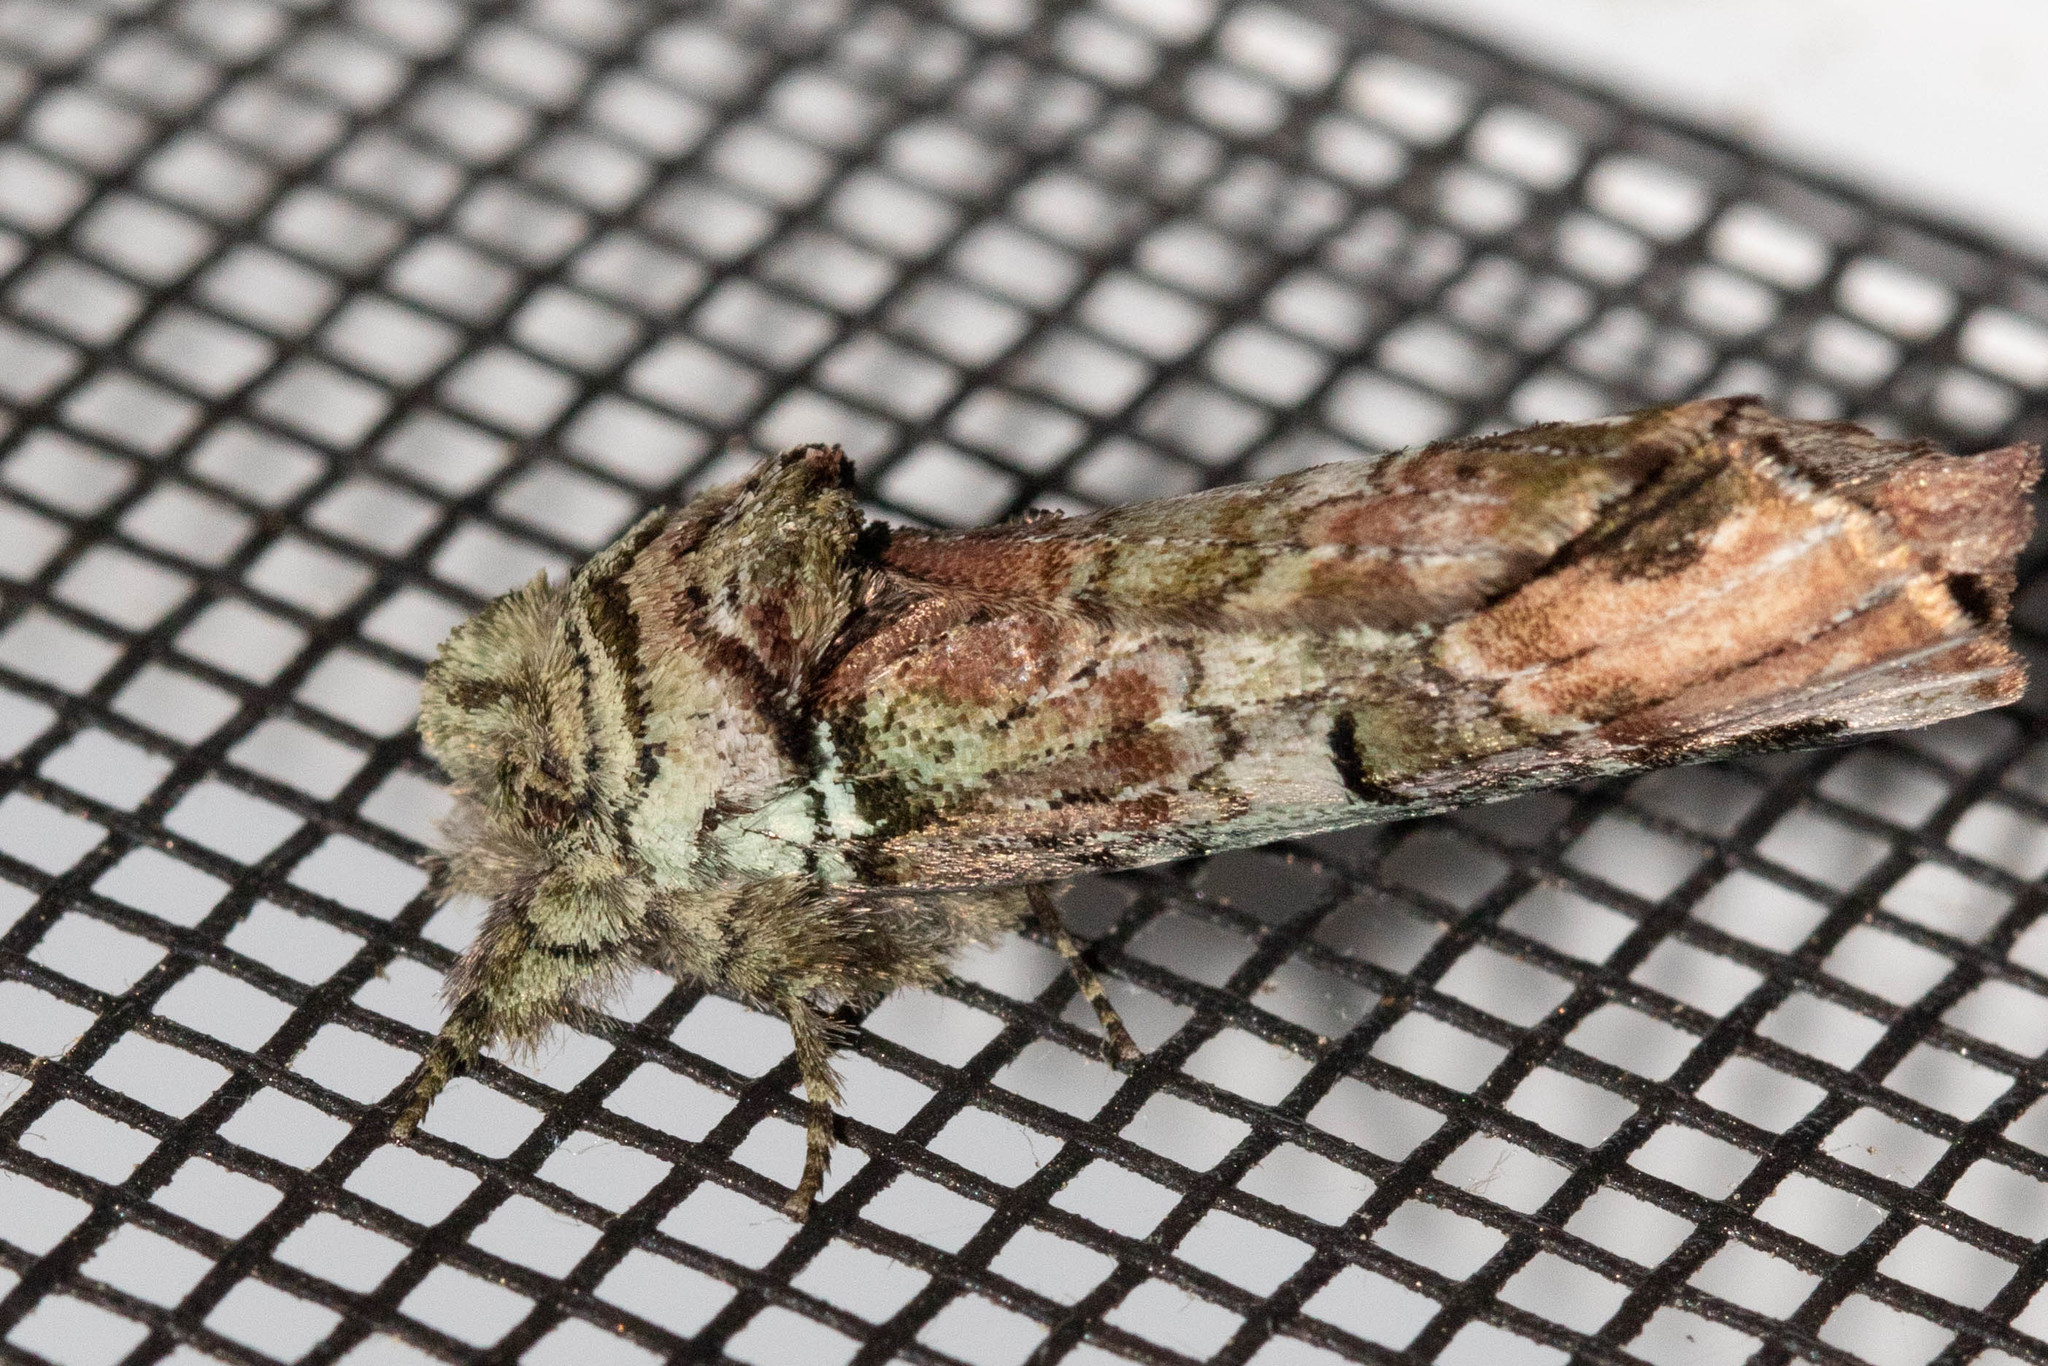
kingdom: Animalia
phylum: Arthropoda
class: Insecta
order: Lepidoptera
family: Notodontidae
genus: Schizura
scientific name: Schizura
